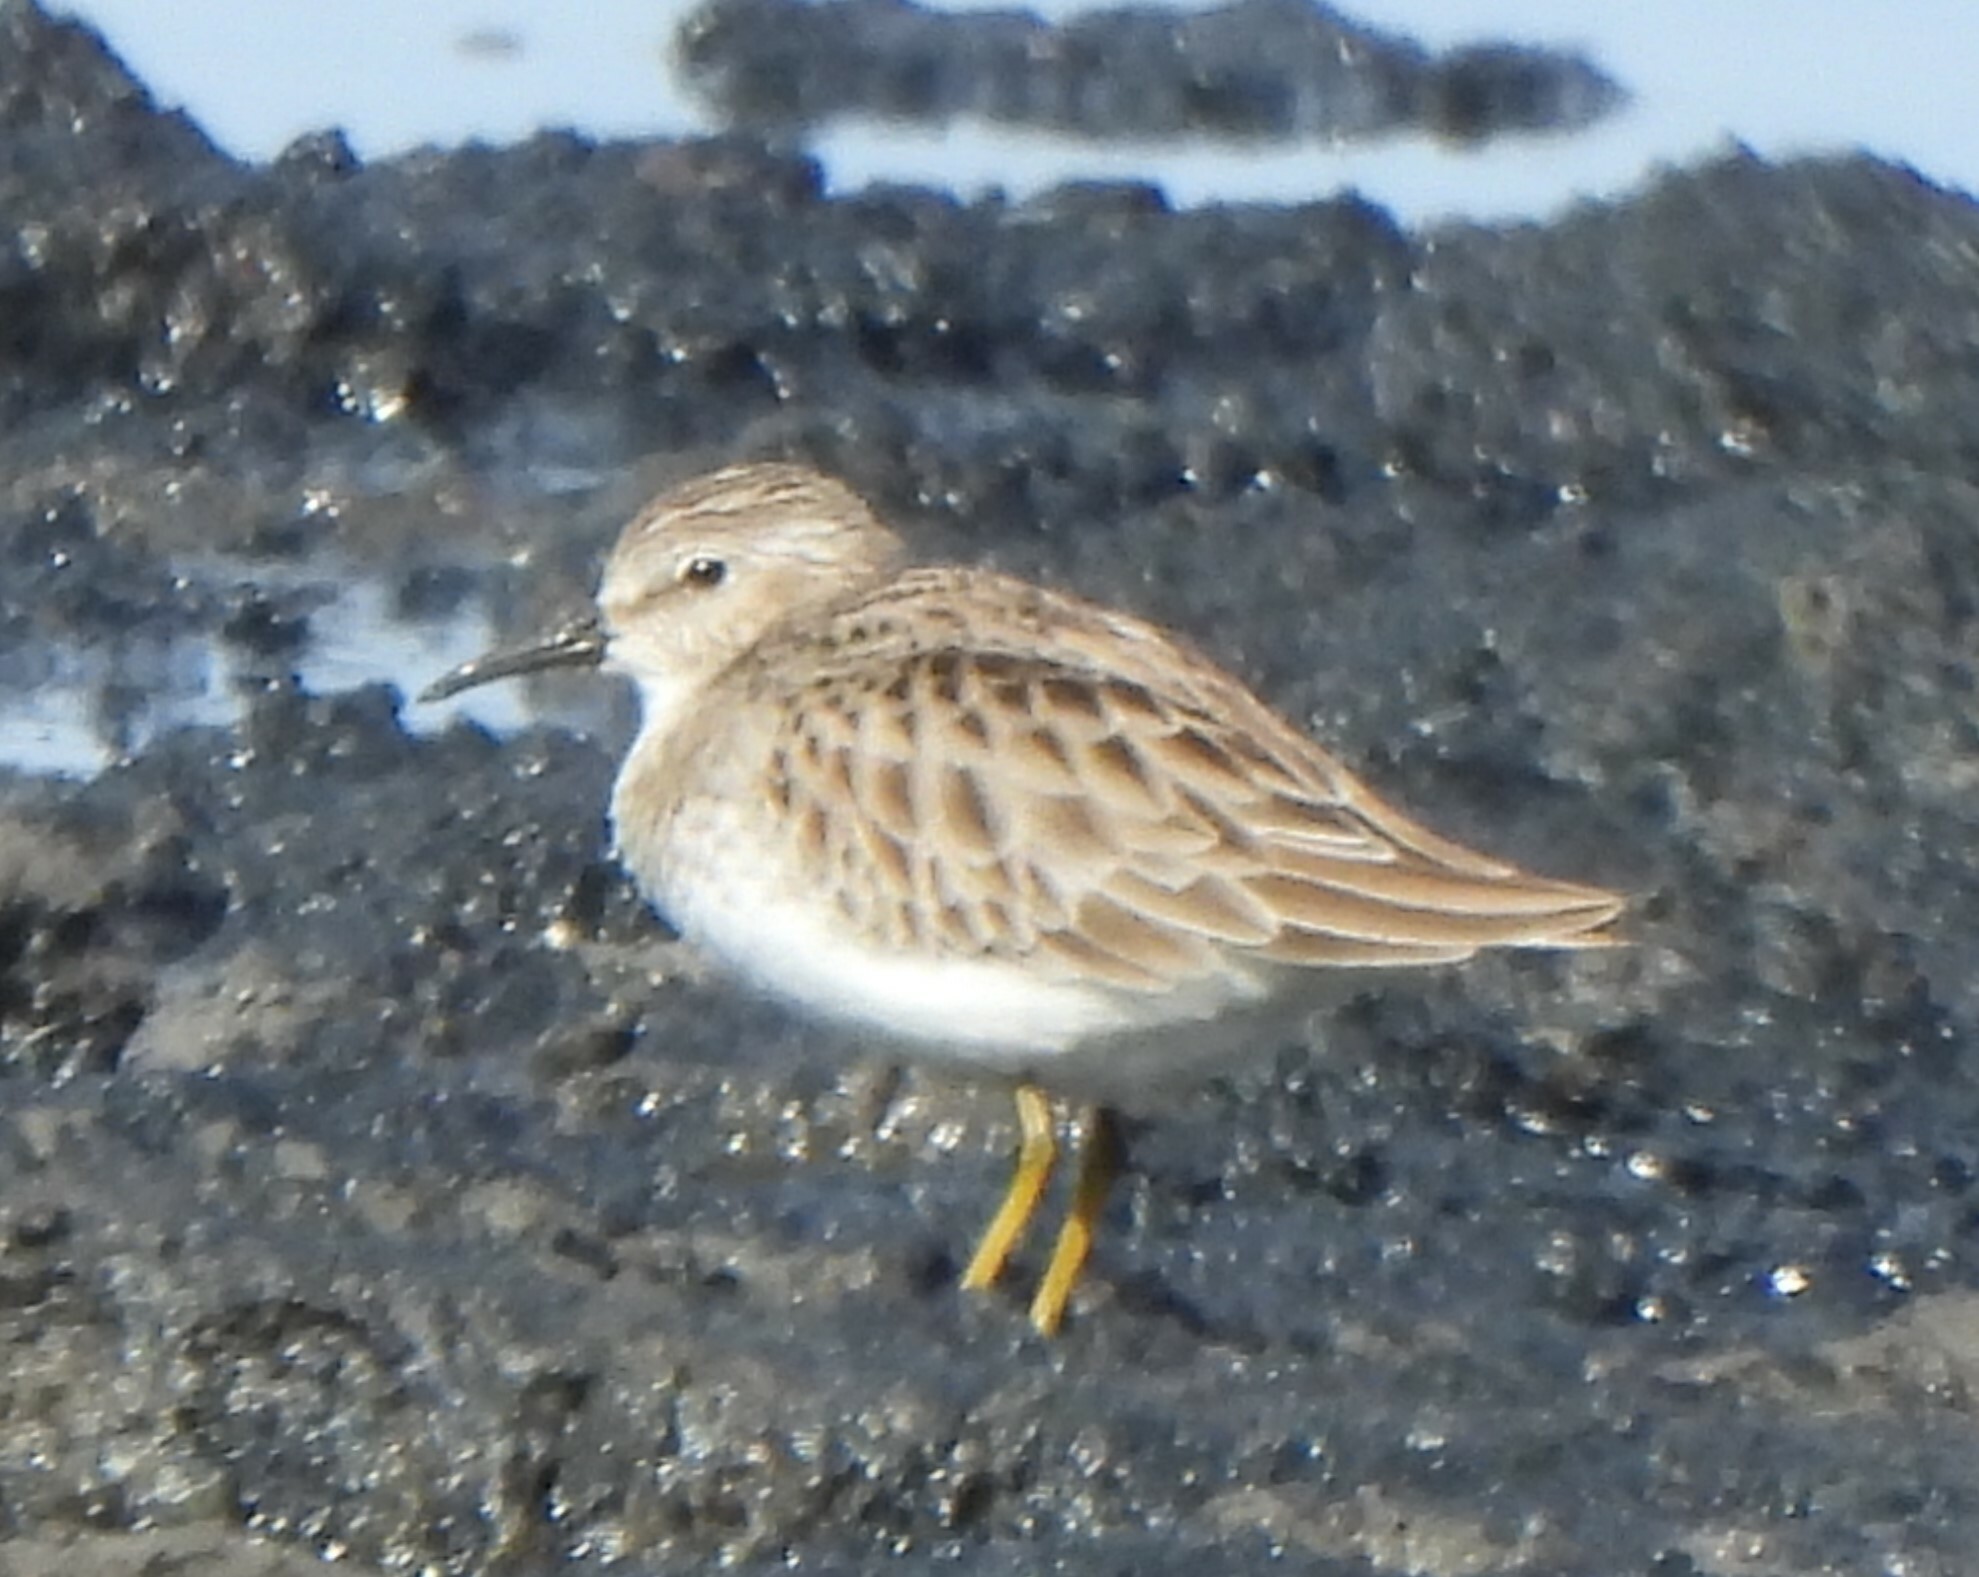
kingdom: Animalia
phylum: Chordata
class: Aves
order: Charadriiformes
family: Scolopacidae
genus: Calidris
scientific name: Calidris minutilla
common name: Least sandpiper
